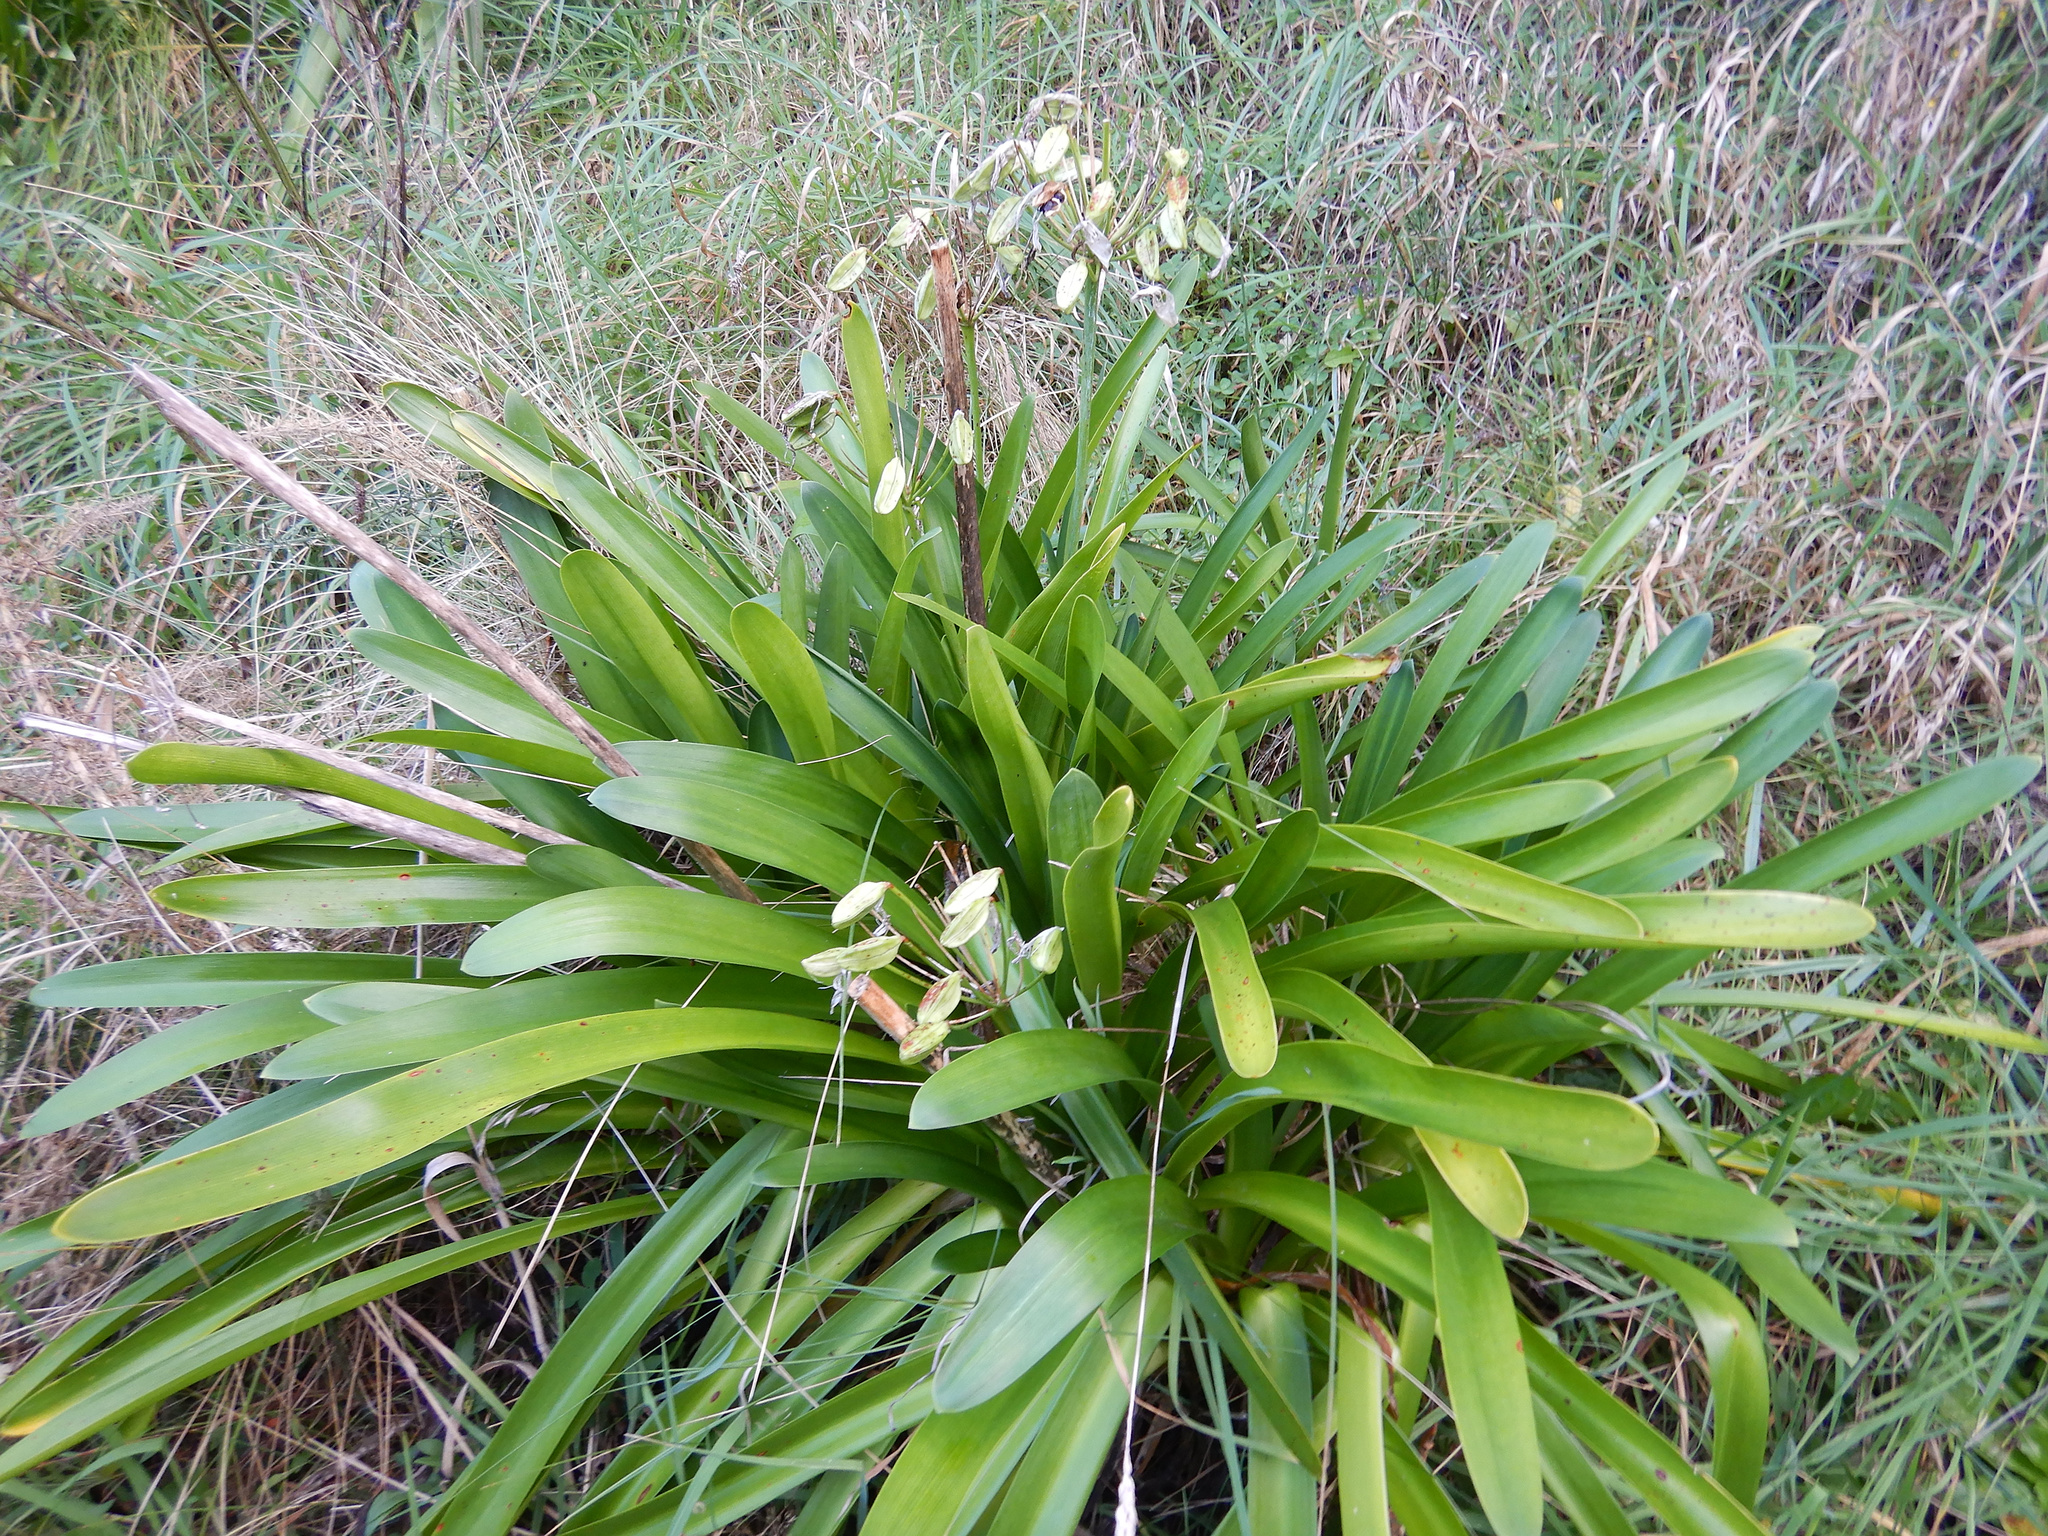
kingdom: Plantae
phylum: Tracheophyta
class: Liliopsida
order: Asparagales
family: Amaryllidaceae
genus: Agapanthus
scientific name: Agapanthus praecox
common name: African-lily
